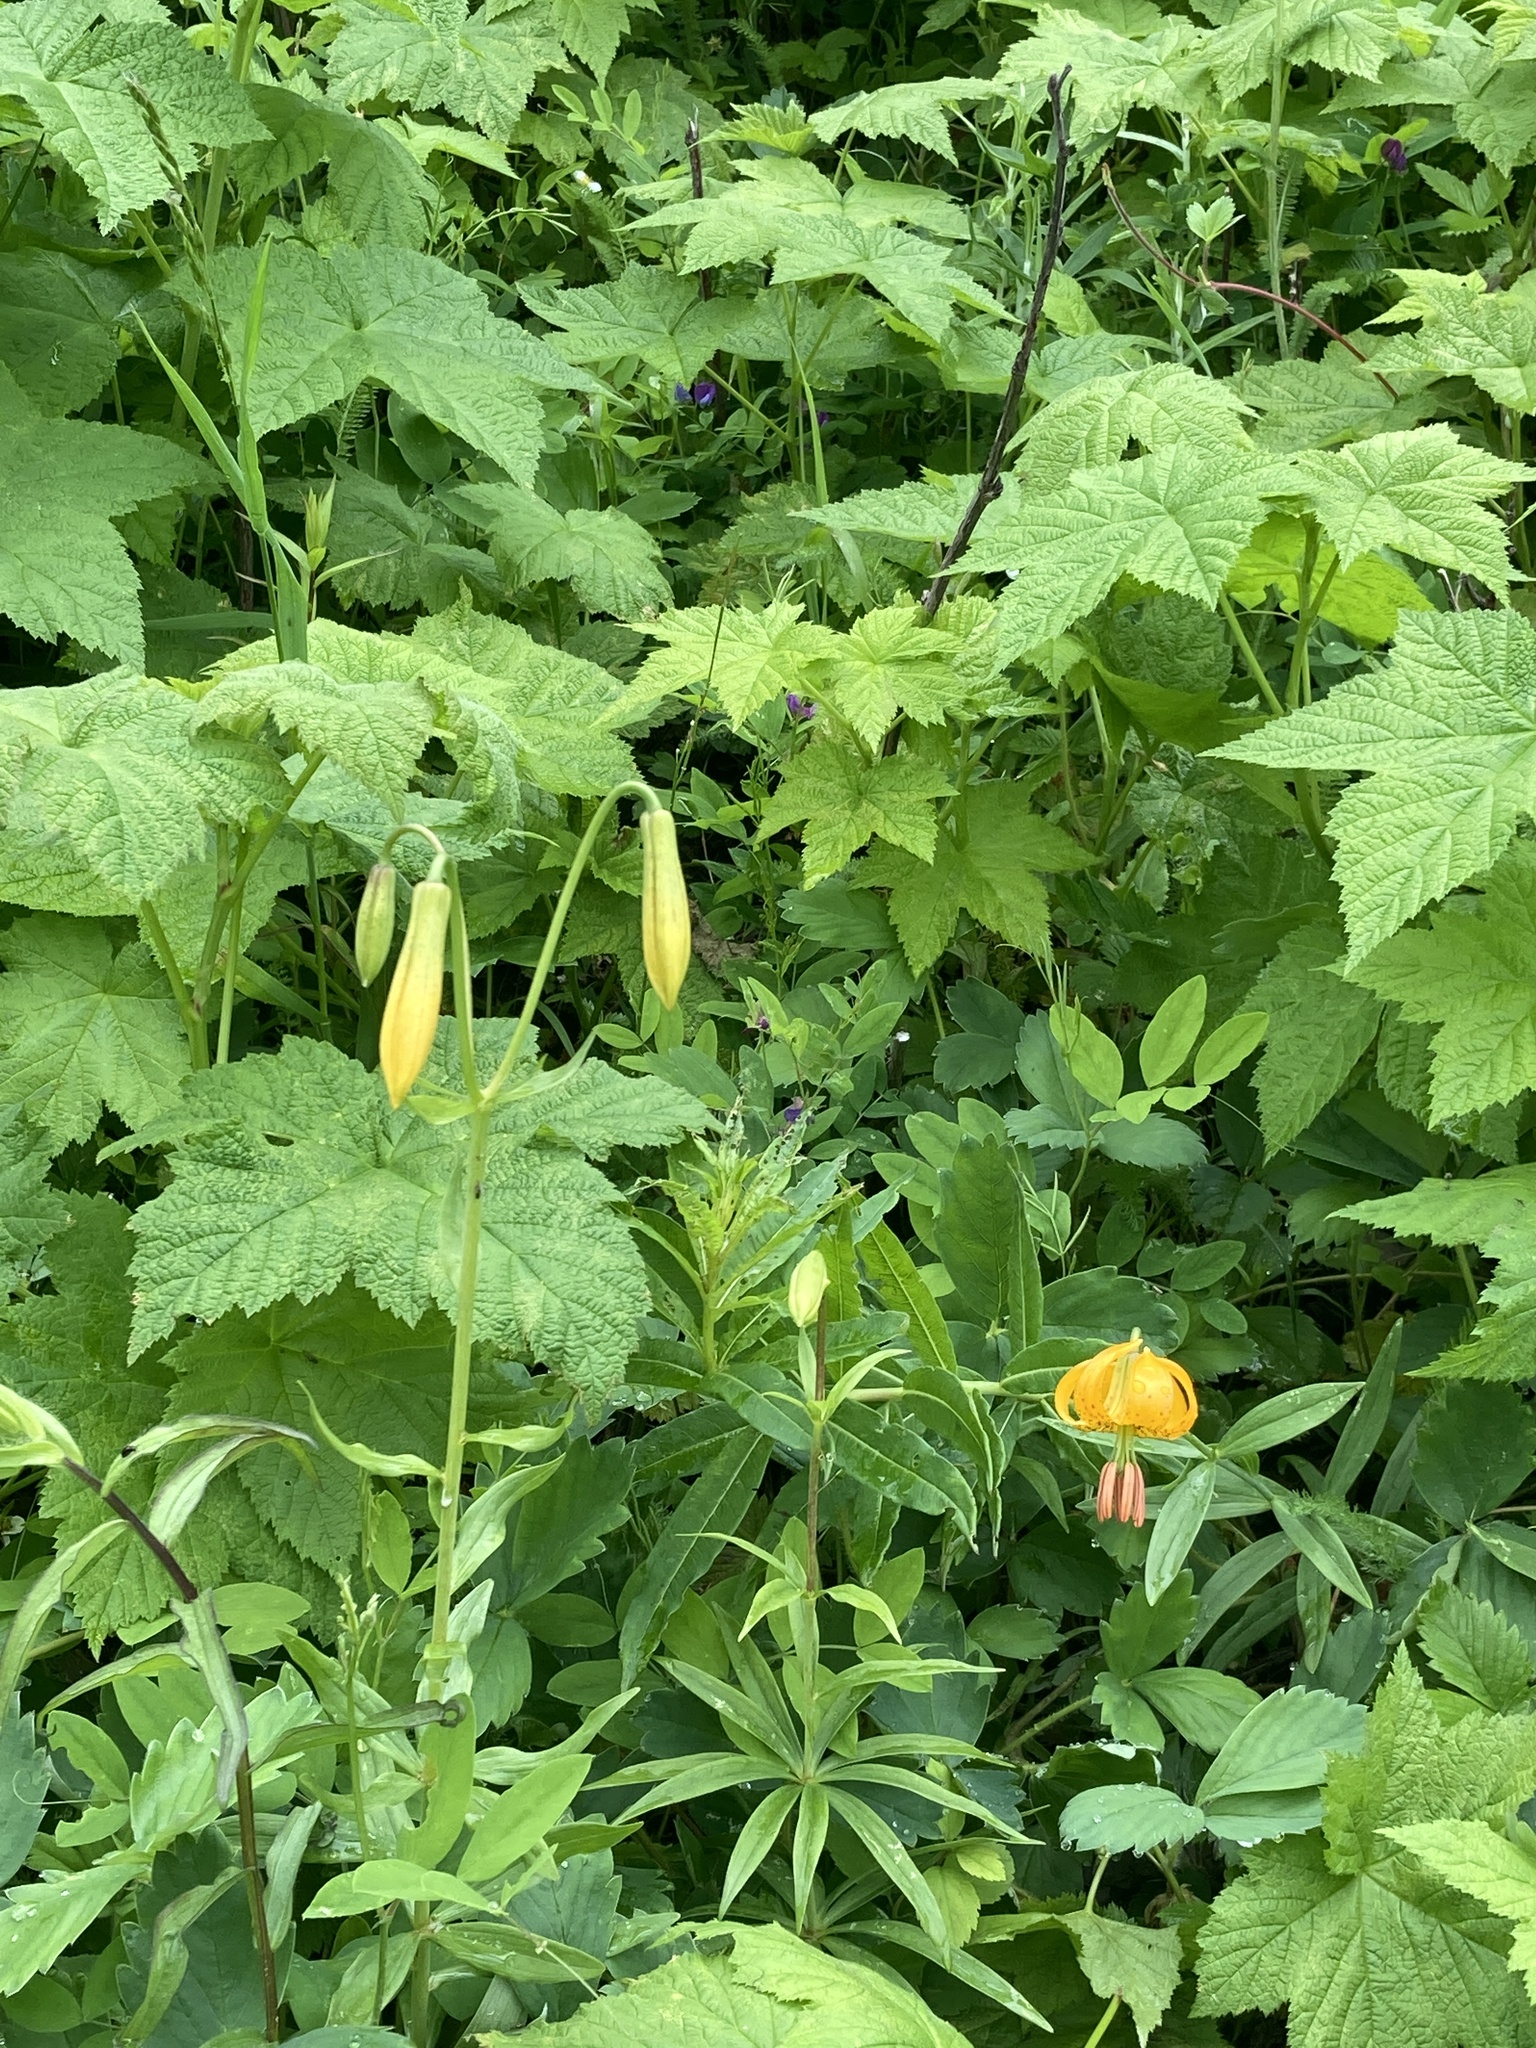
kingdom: Plantae
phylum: Tracheophyta
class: Liliopsida
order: Liliales
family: Liliaceae
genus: Lilium
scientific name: Lilium columbianum
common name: Columbia lily
